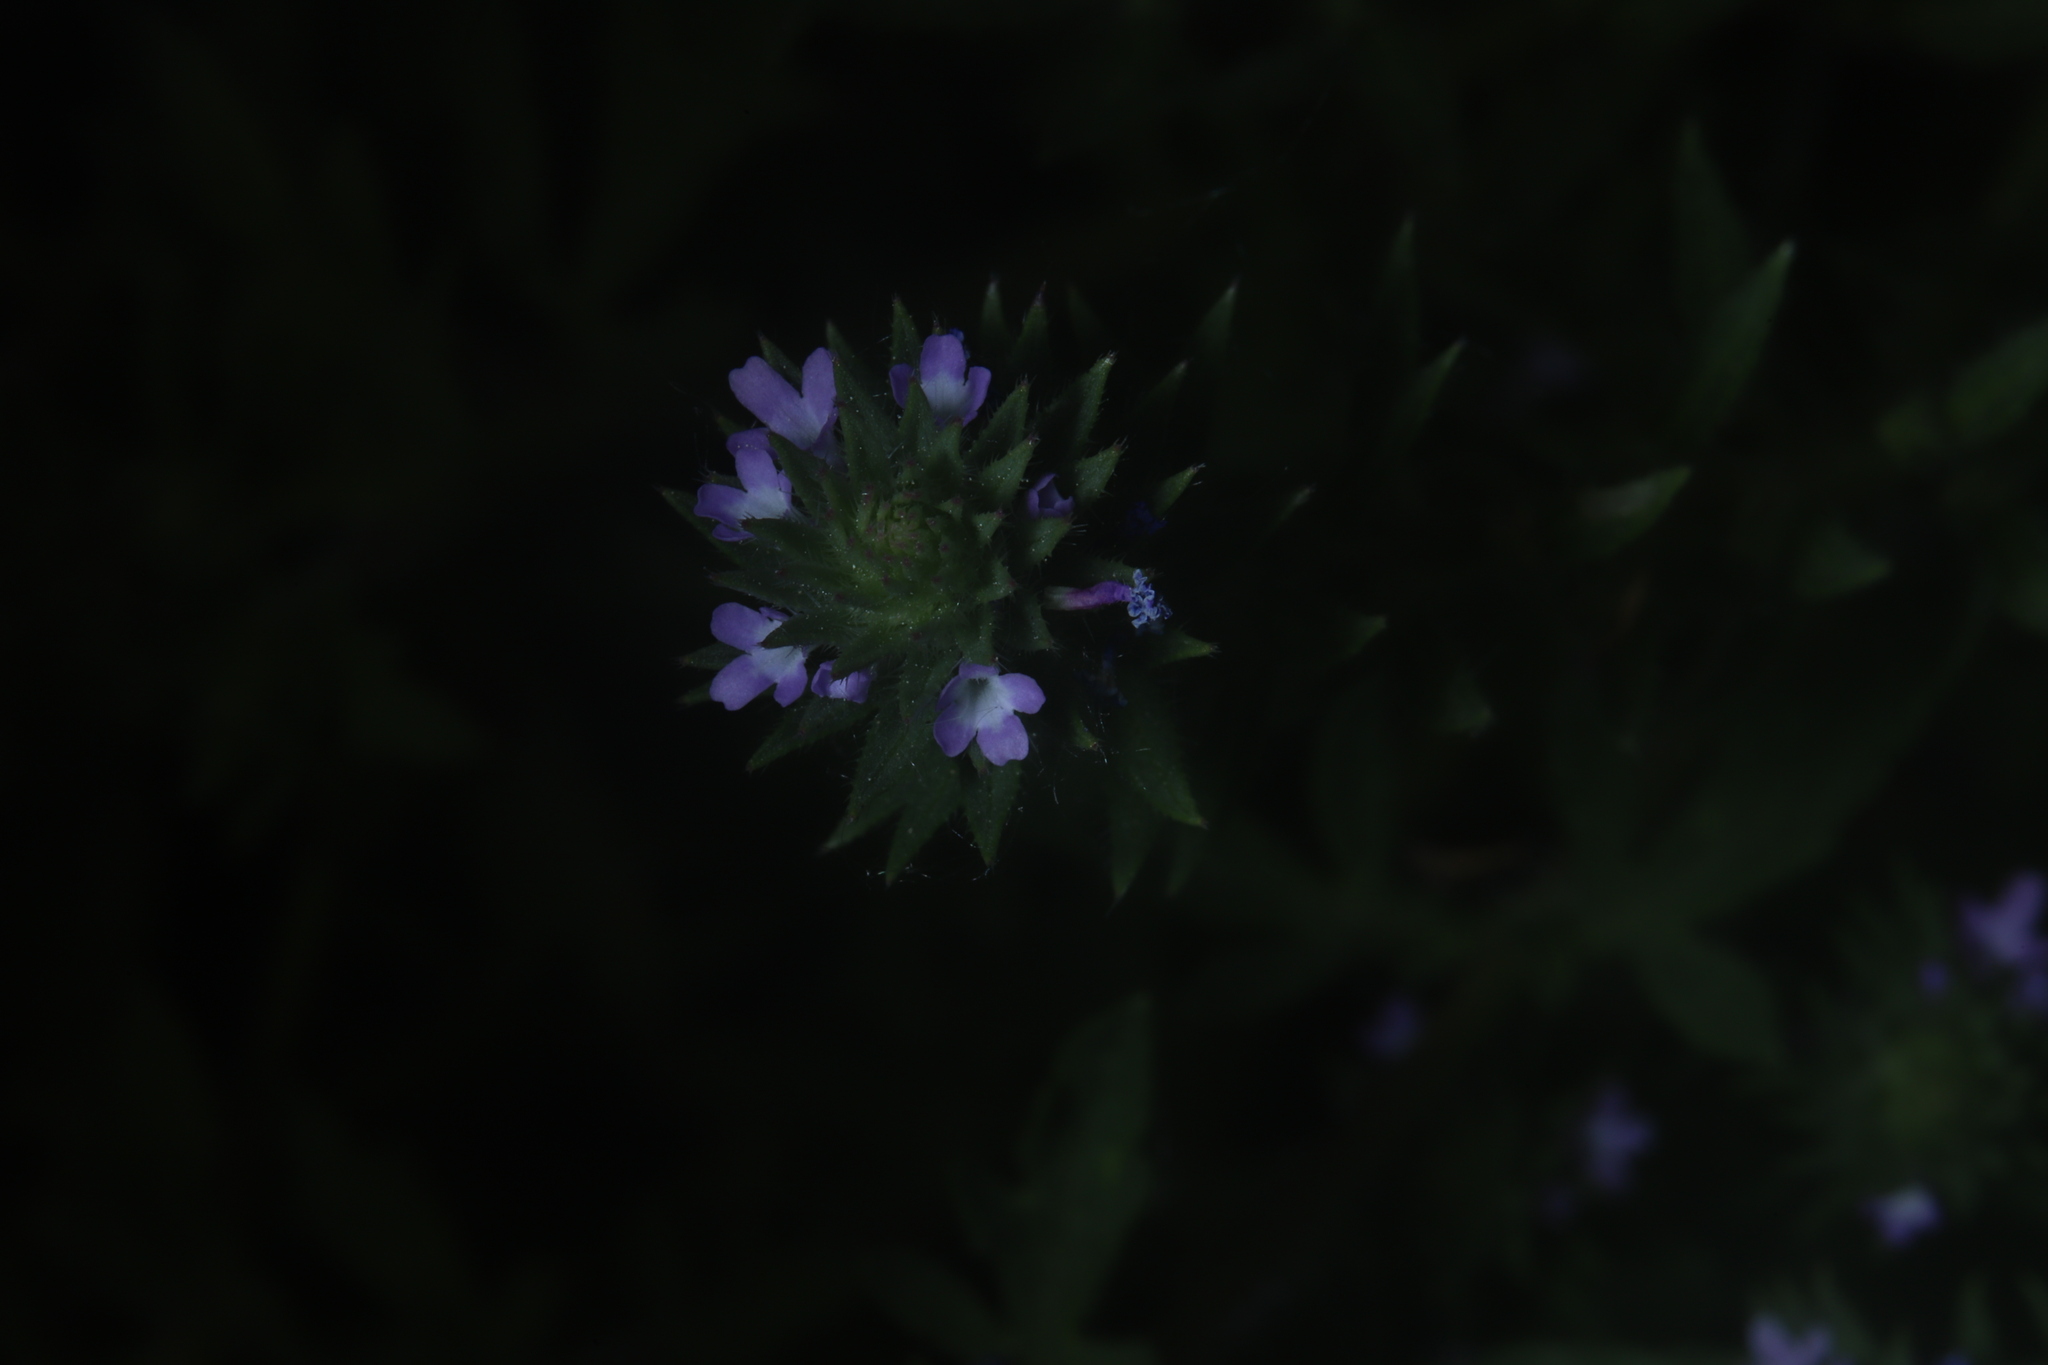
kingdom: Plantae
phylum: Tracheophyta
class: Magnoliopsida
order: Lamiales
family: Verbenaceae
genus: Verbena
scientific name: Verbena bracteata
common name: Bracted vervain
